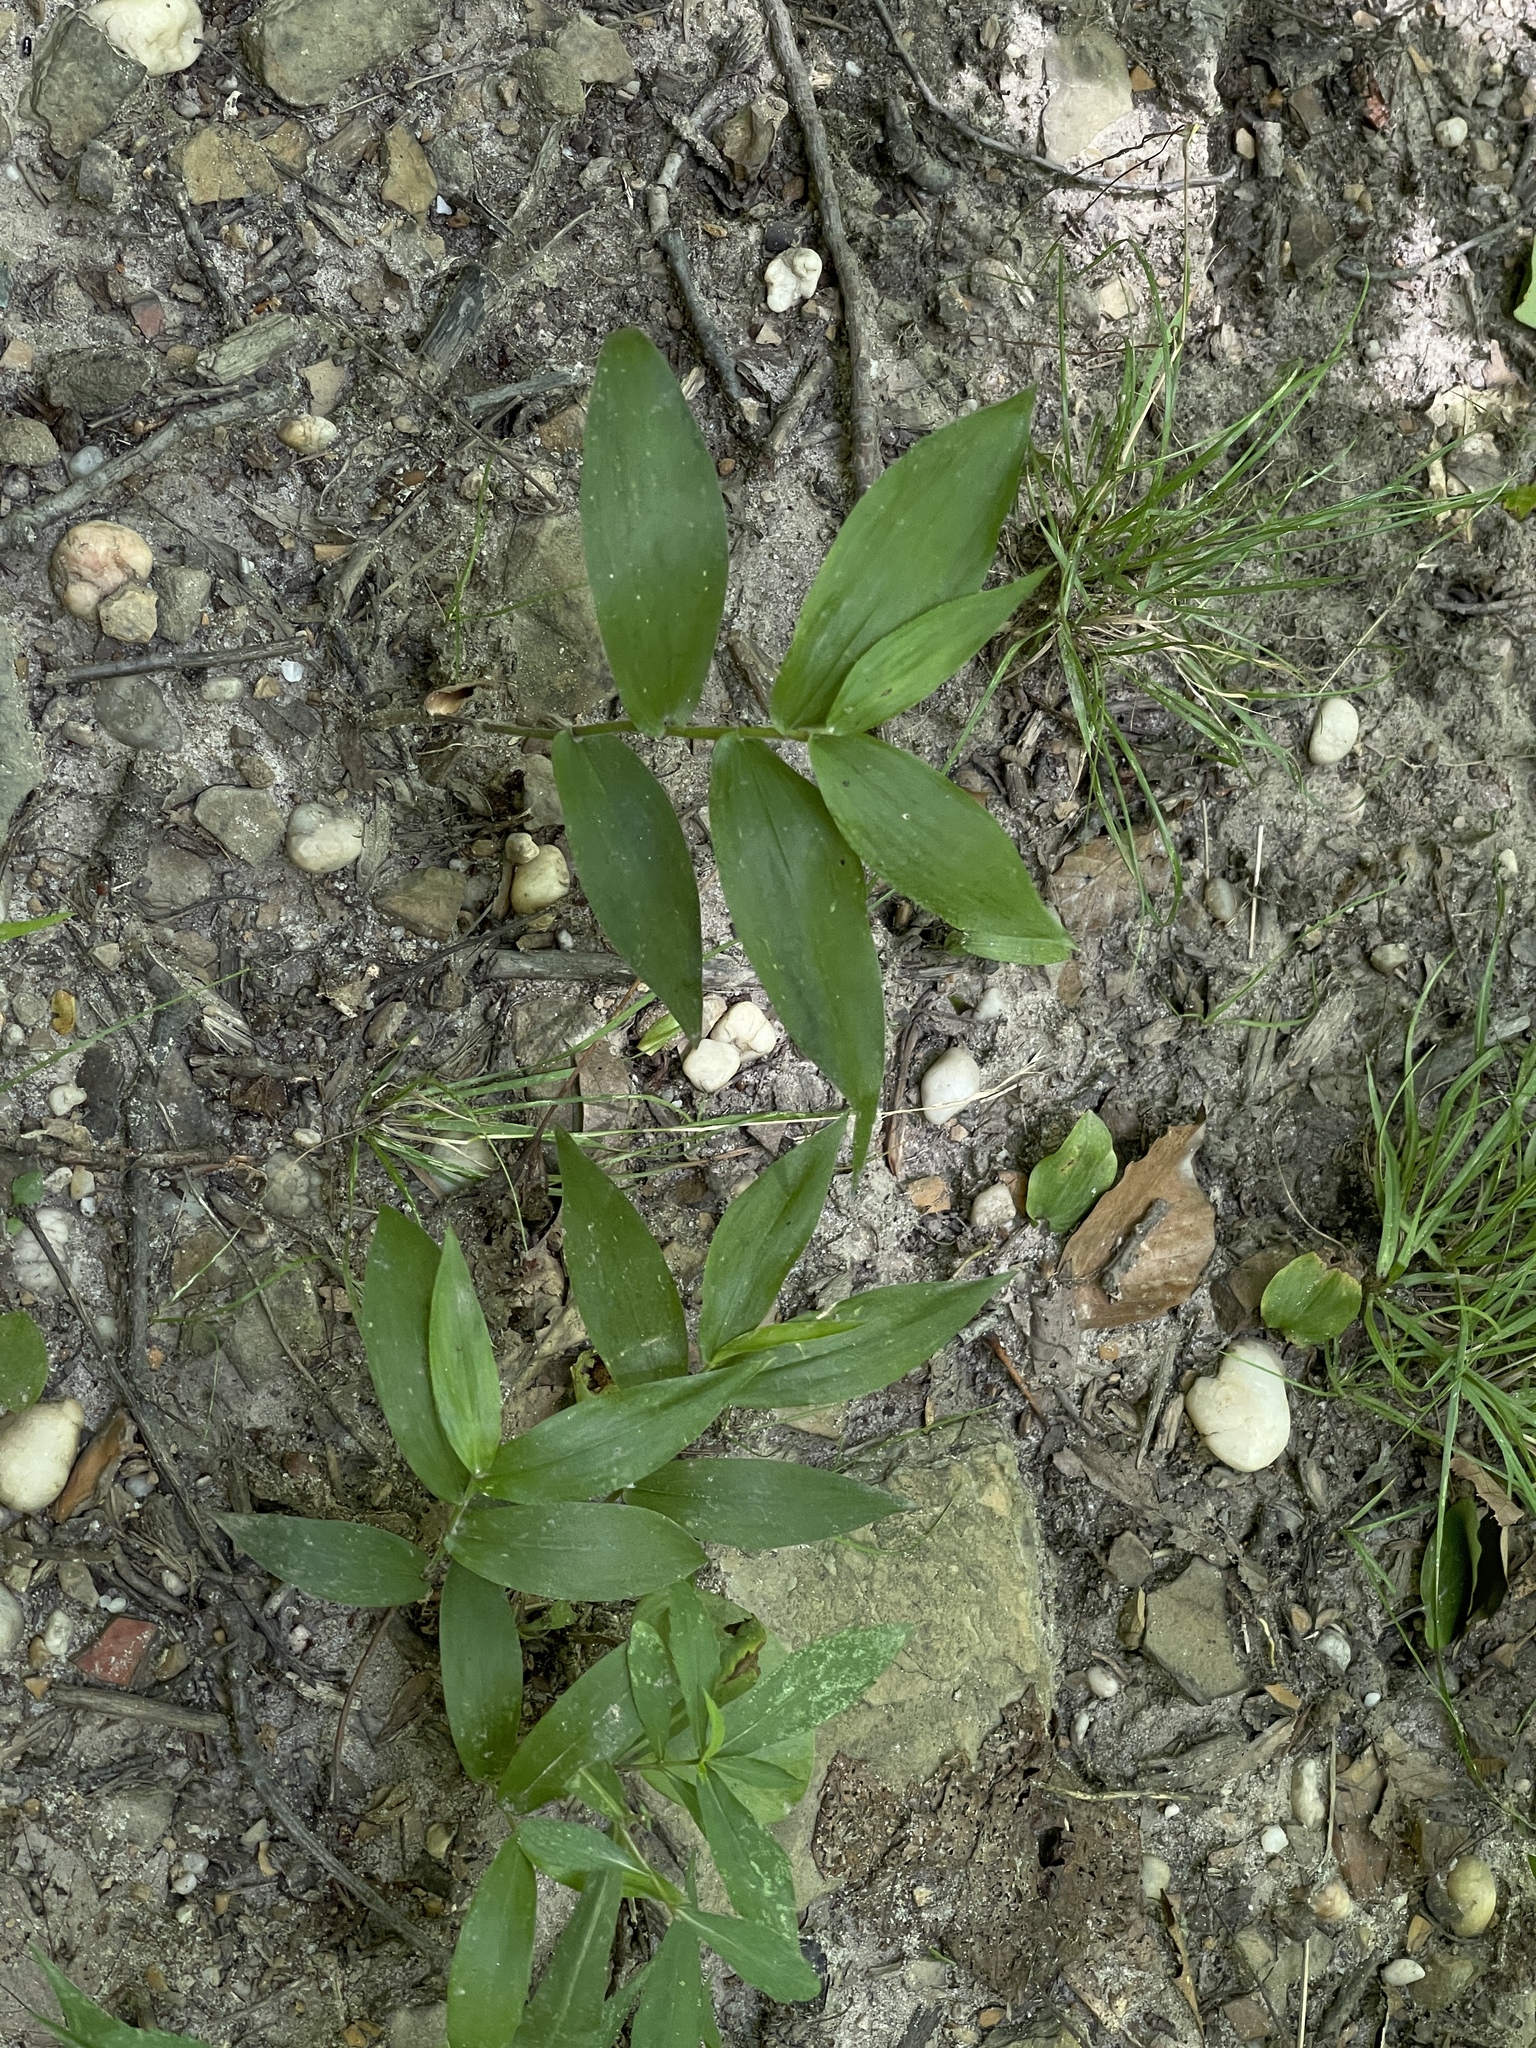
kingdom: Plantae
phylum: Tracheophyta
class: Liliopsida
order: Poales
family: Poaceae
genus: Dichanthelium
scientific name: Dichanthelium boscii
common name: Bosc's panic grass
